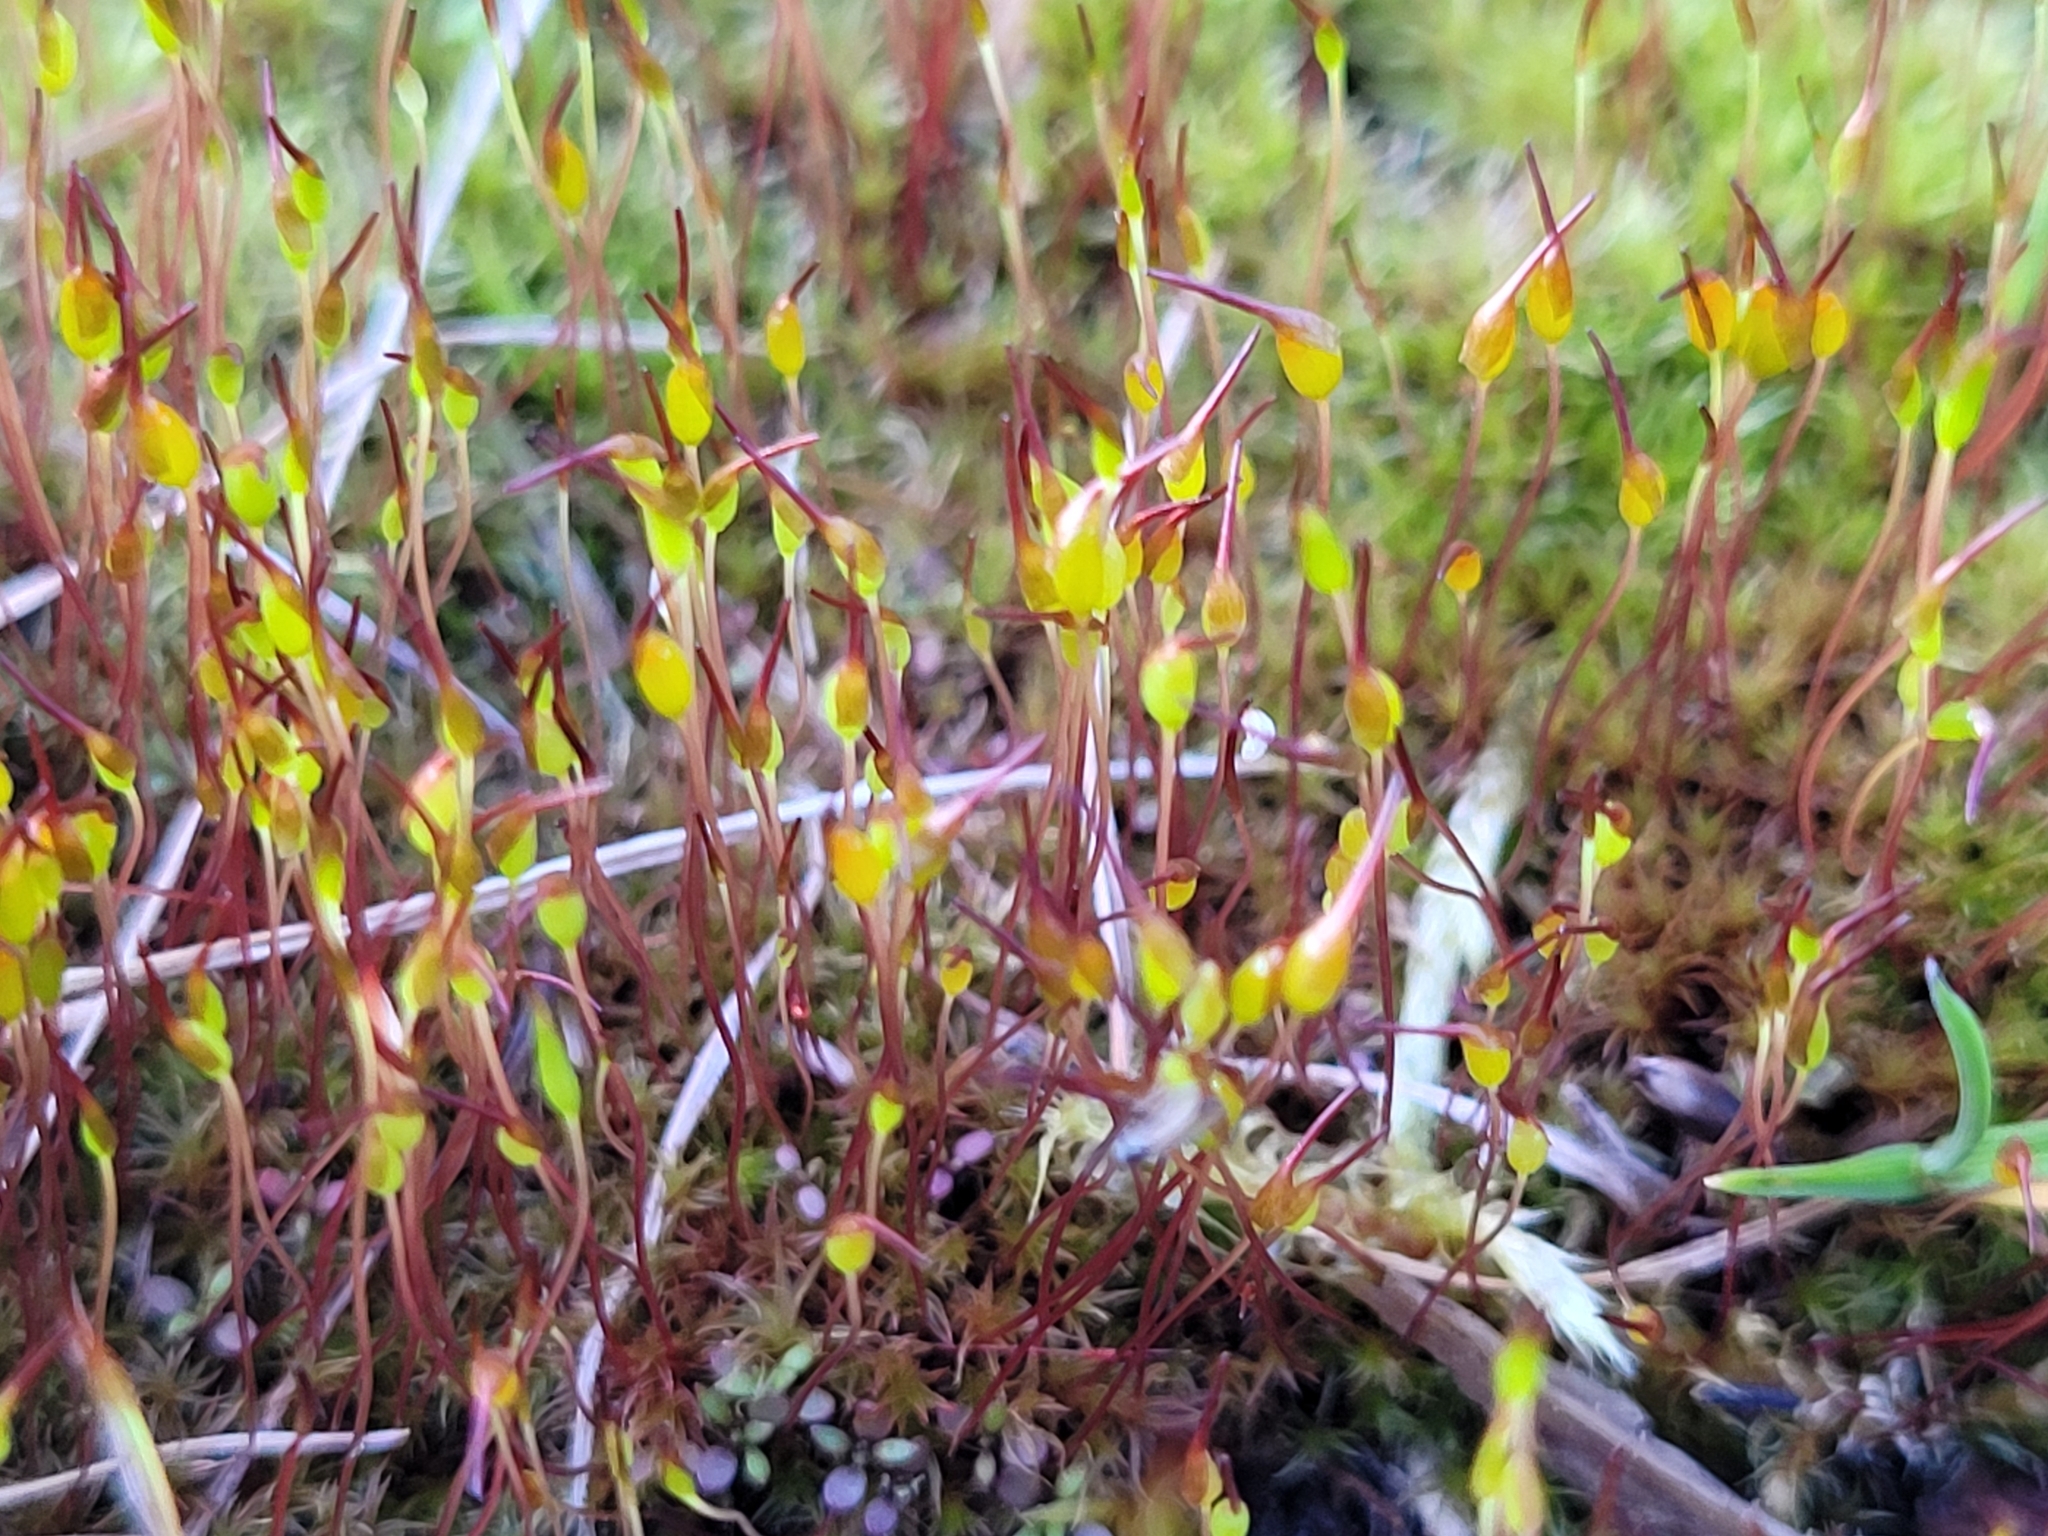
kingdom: Plantae
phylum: Bryophyta
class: Bryopsida
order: Dicranales
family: Ditrichaceae
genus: Ceratodon
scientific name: Ceratodon purpureus
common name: Redshank
